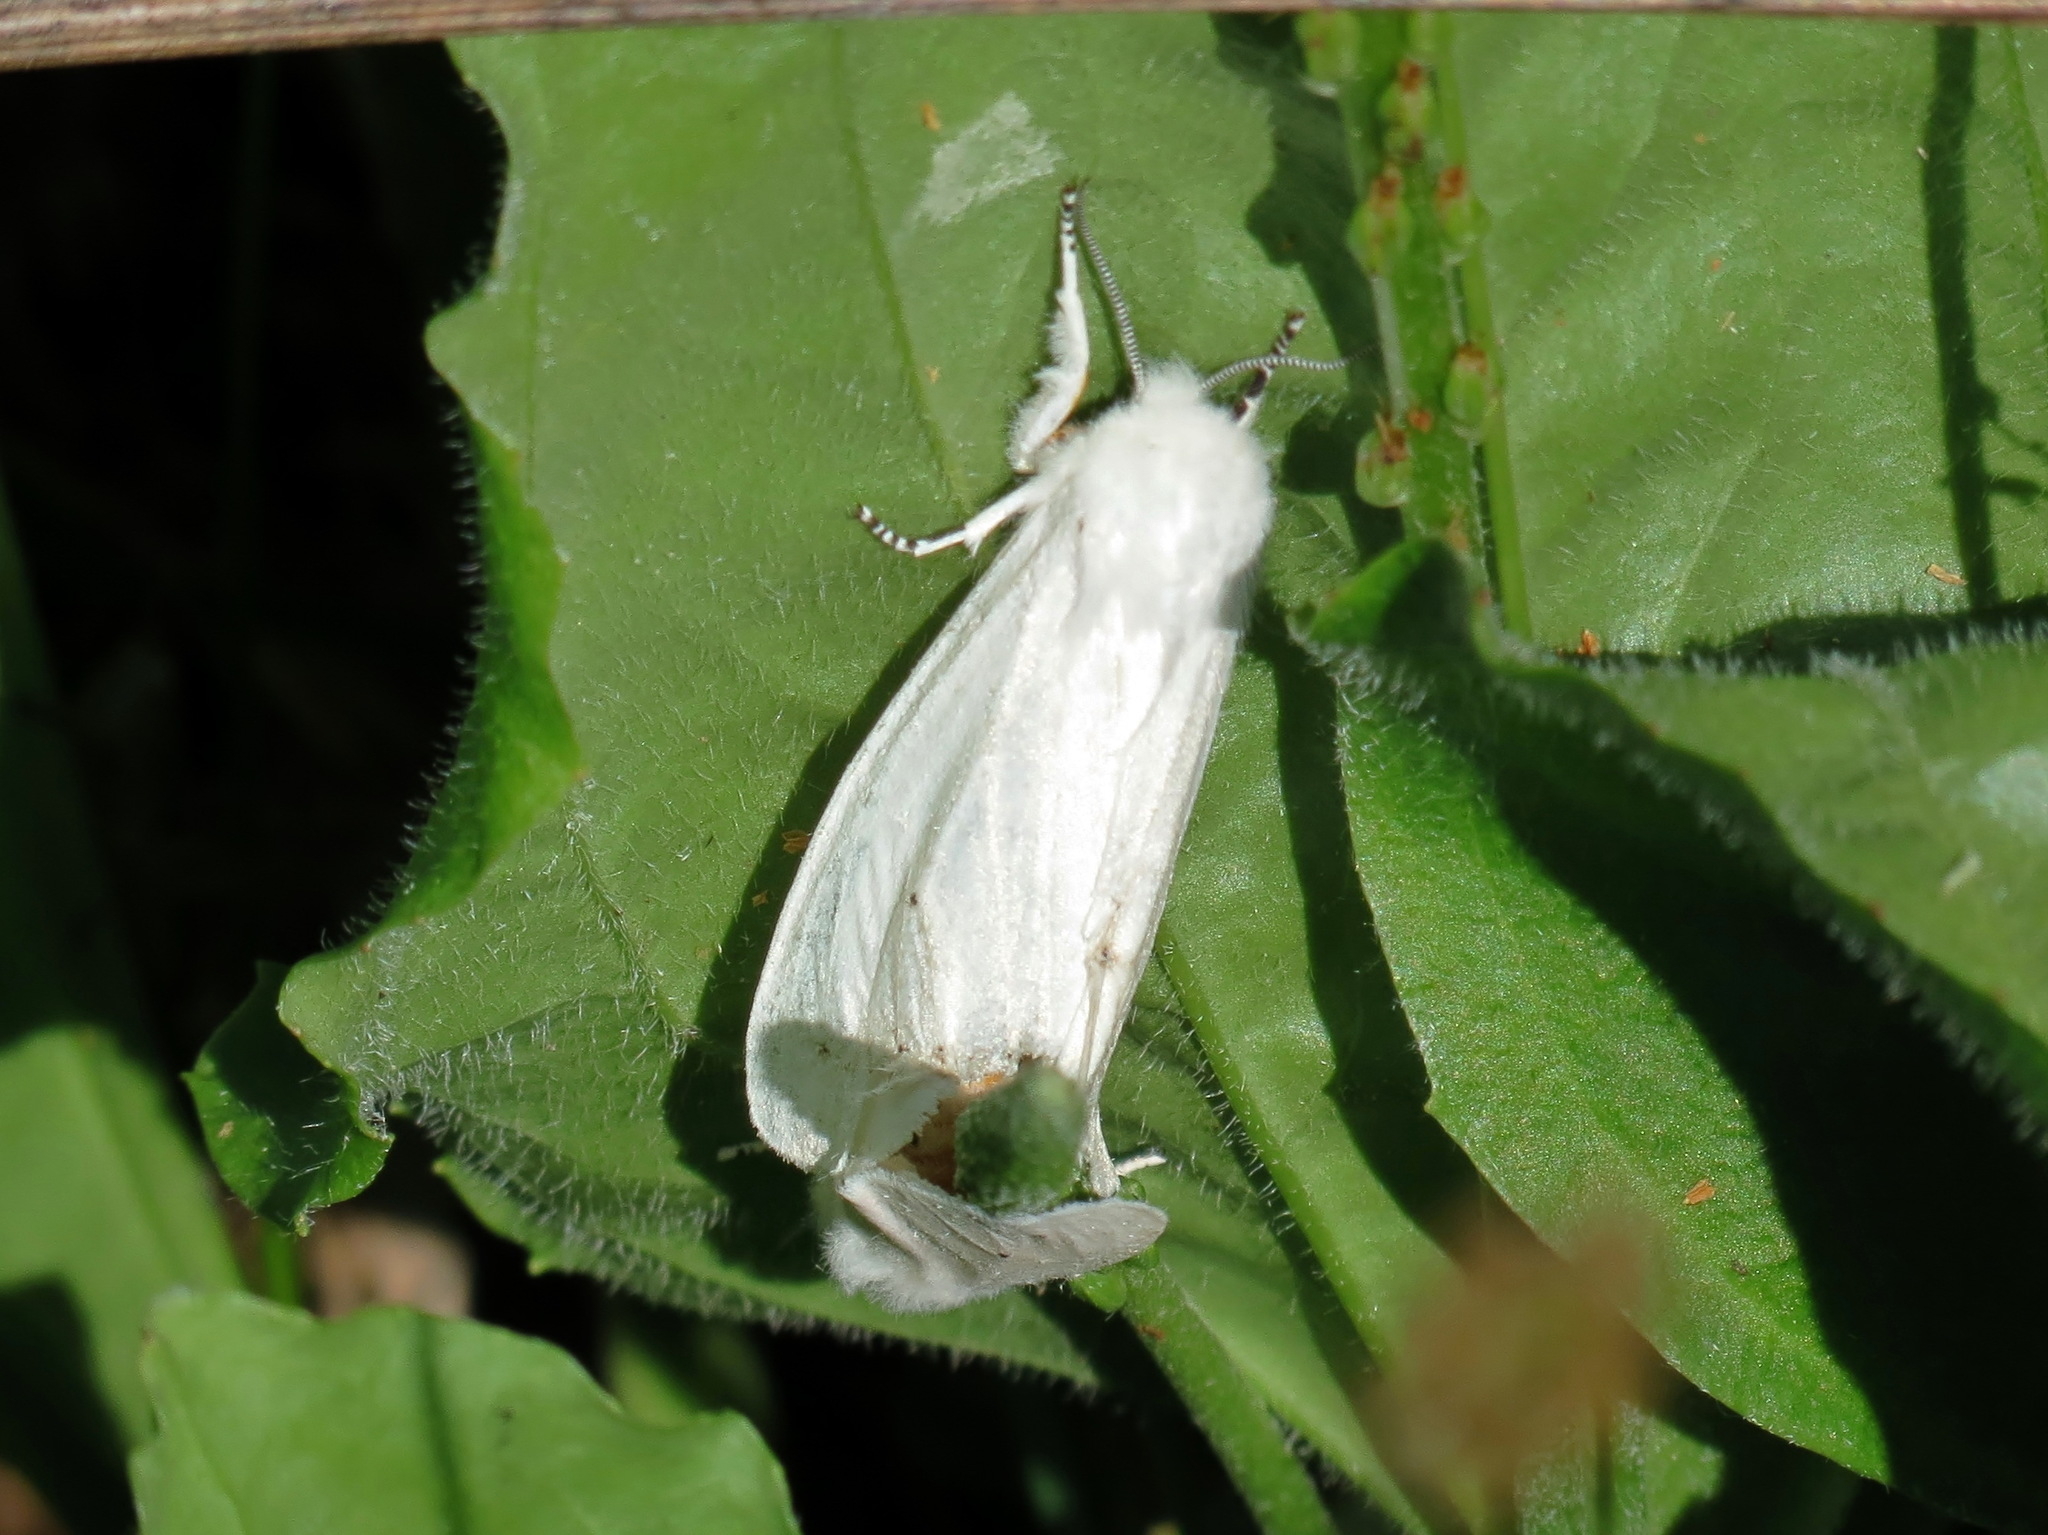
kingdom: Animalia
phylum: Arthropoda
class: Insecta
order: Lepidoptera
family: Erebidae
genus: Spilosoma
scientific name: Spilosoma virginica
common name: Virginia tiger moth
